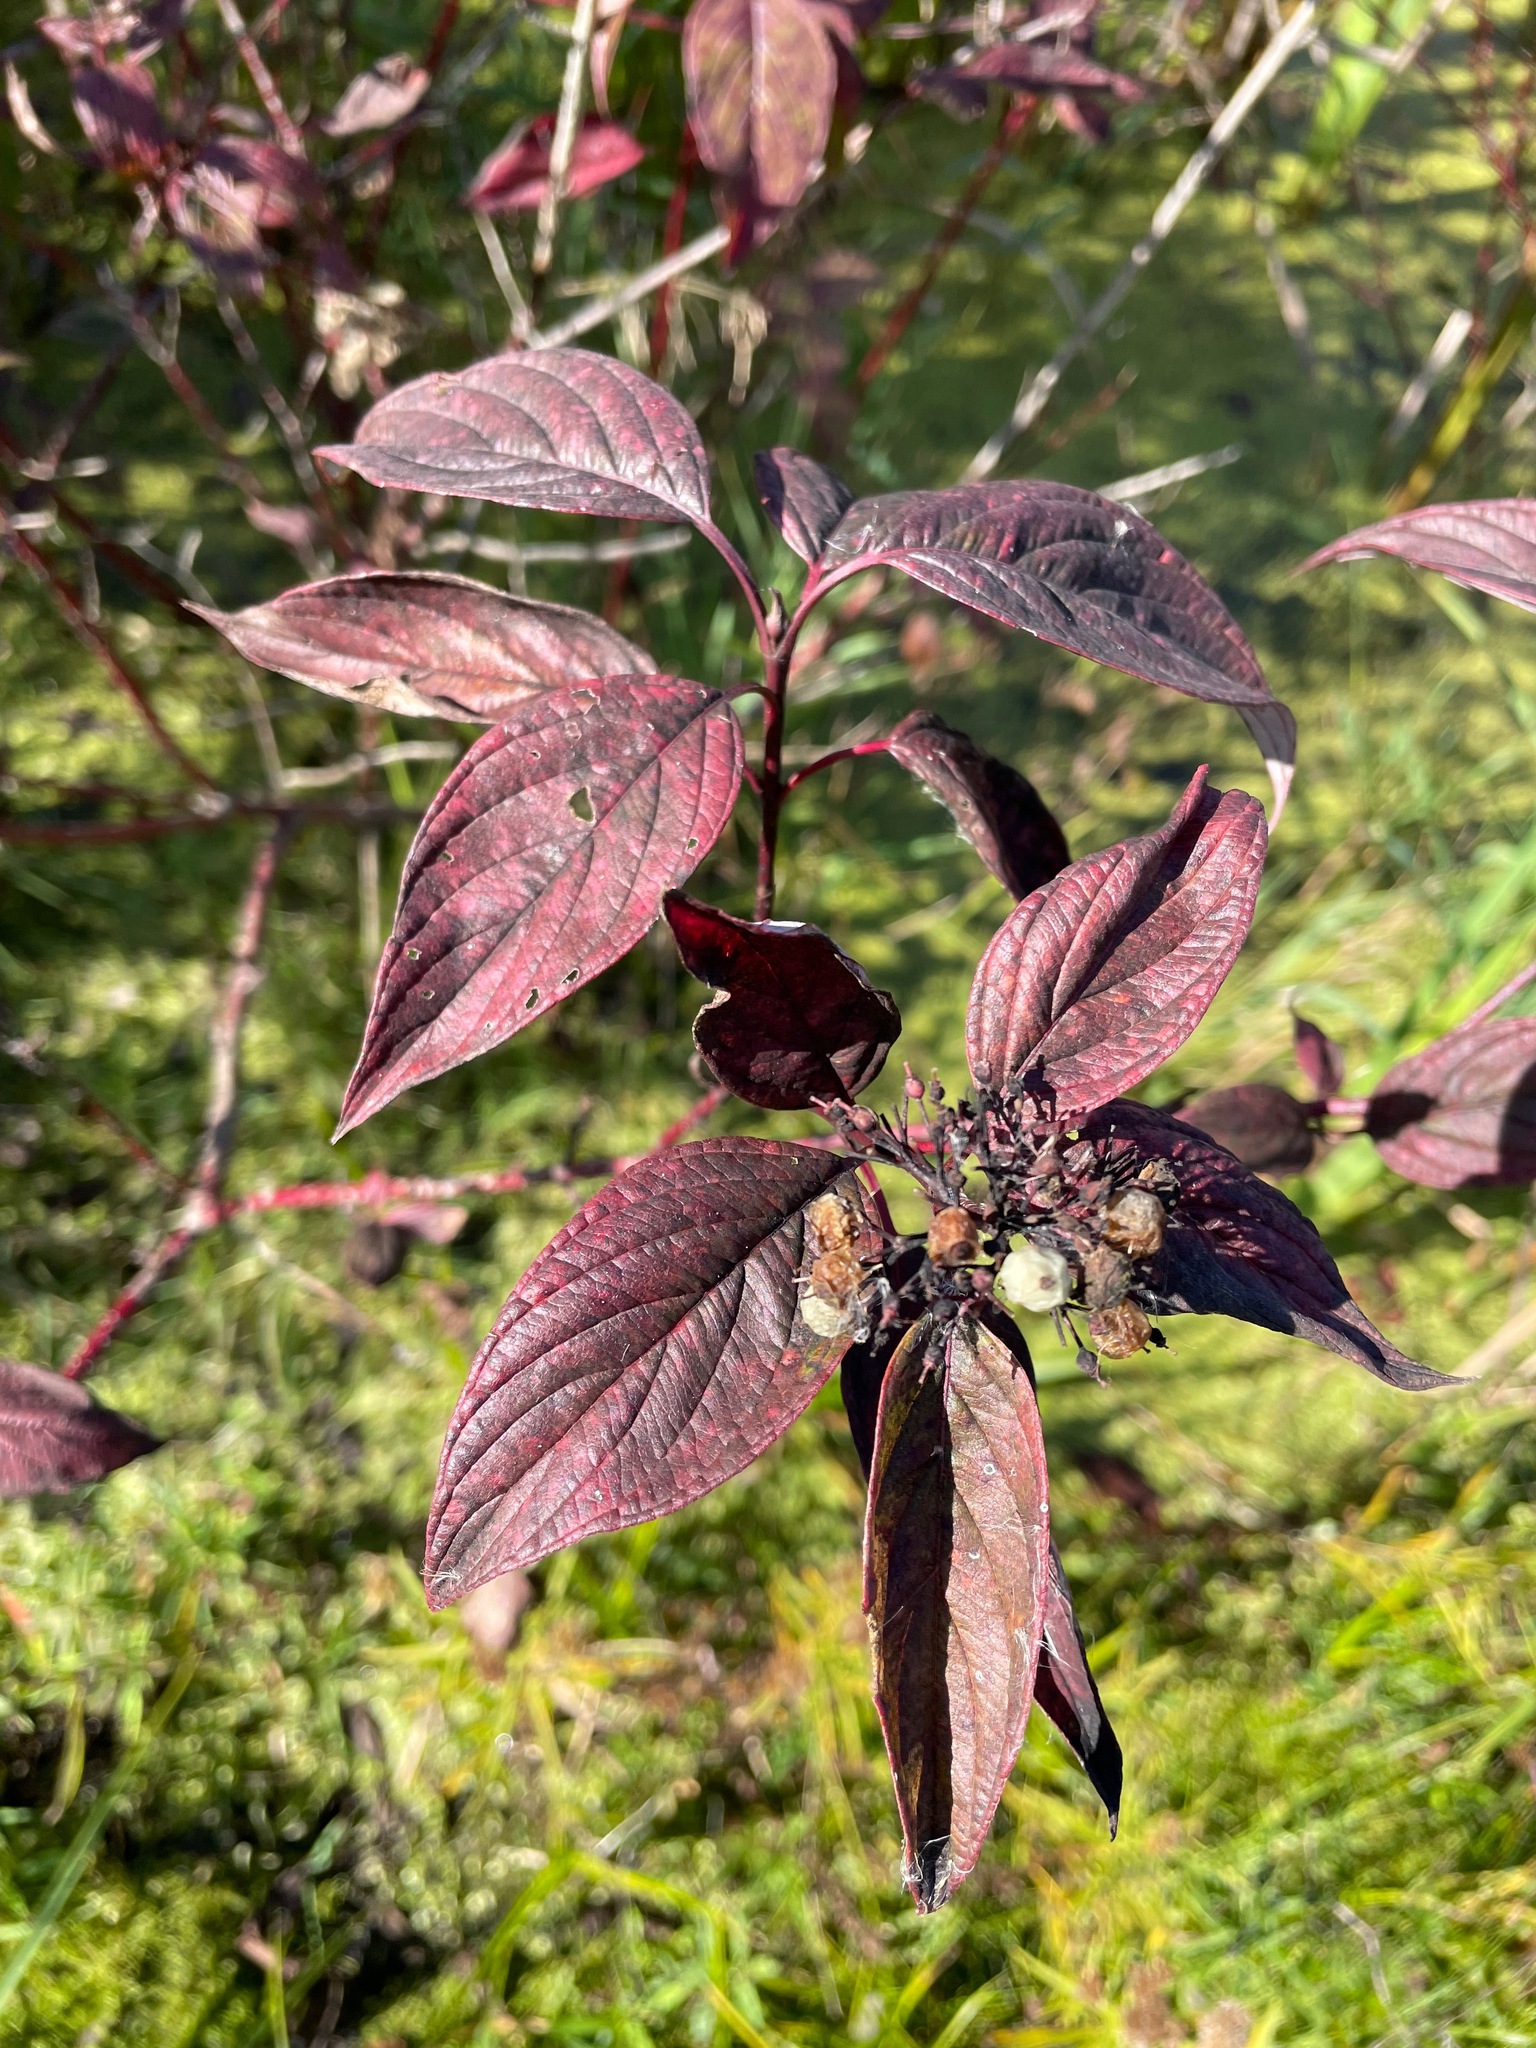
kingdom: Plantae
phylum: Tracheophyta
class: Magnoliopsida
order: Cornales
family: Cornaceae
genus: Cornus
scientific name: Cornus sericea
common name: Red-osier dogwood
